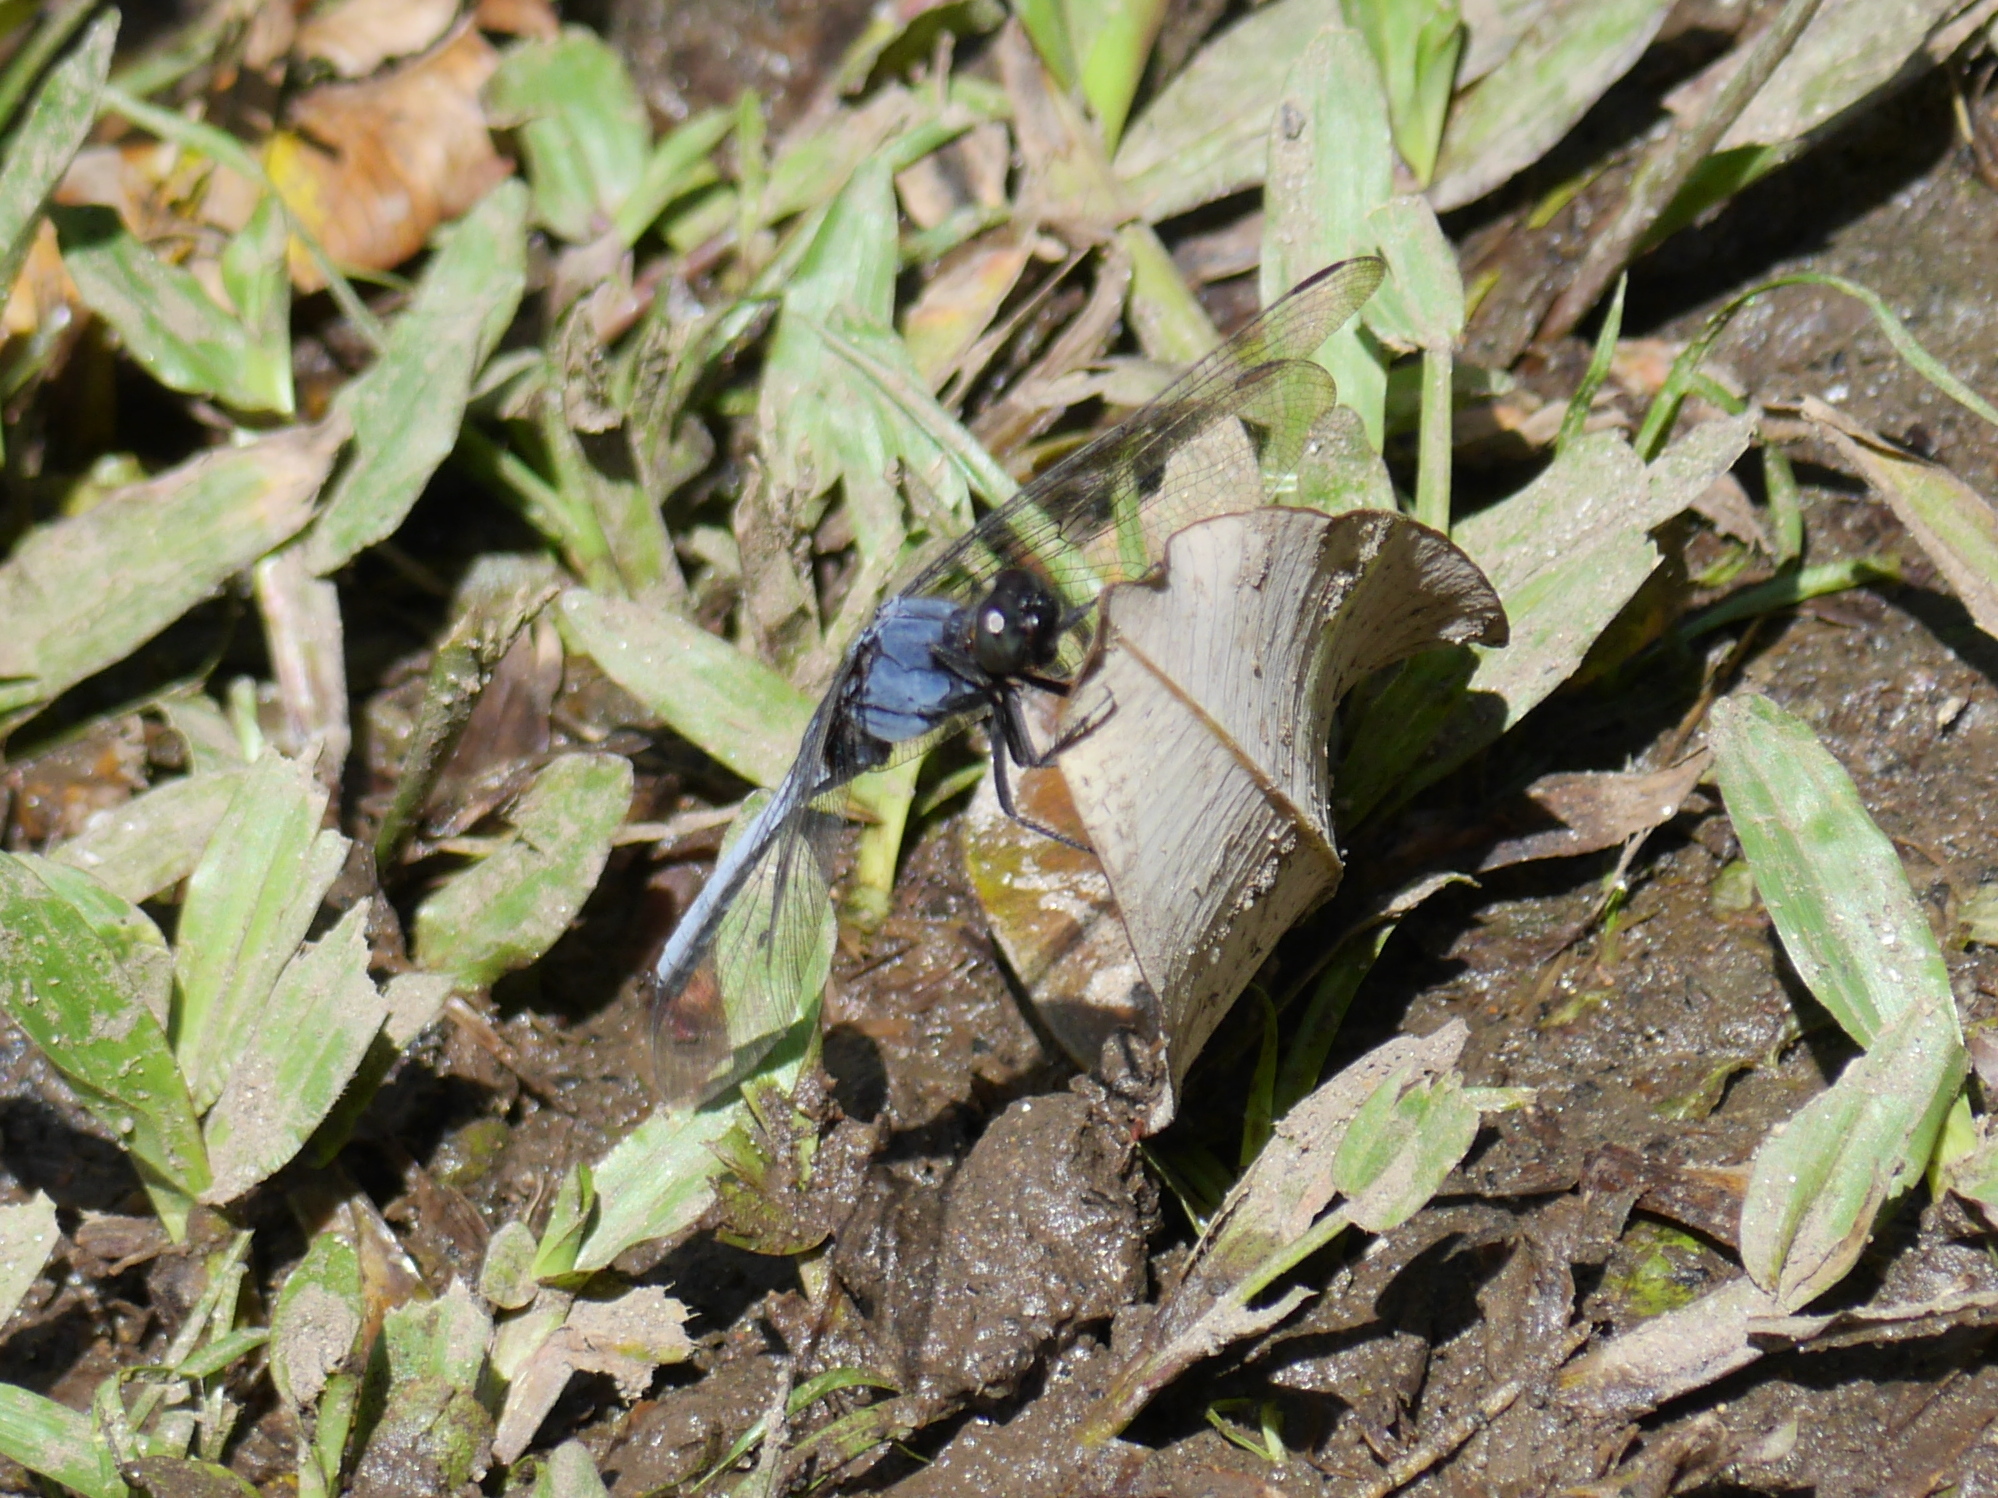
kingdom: Animalia
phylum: Arthropoda
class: Insecta
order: Odonata
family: Libellulidae
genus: Orthetrum
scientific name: Orthetrum glaucum
